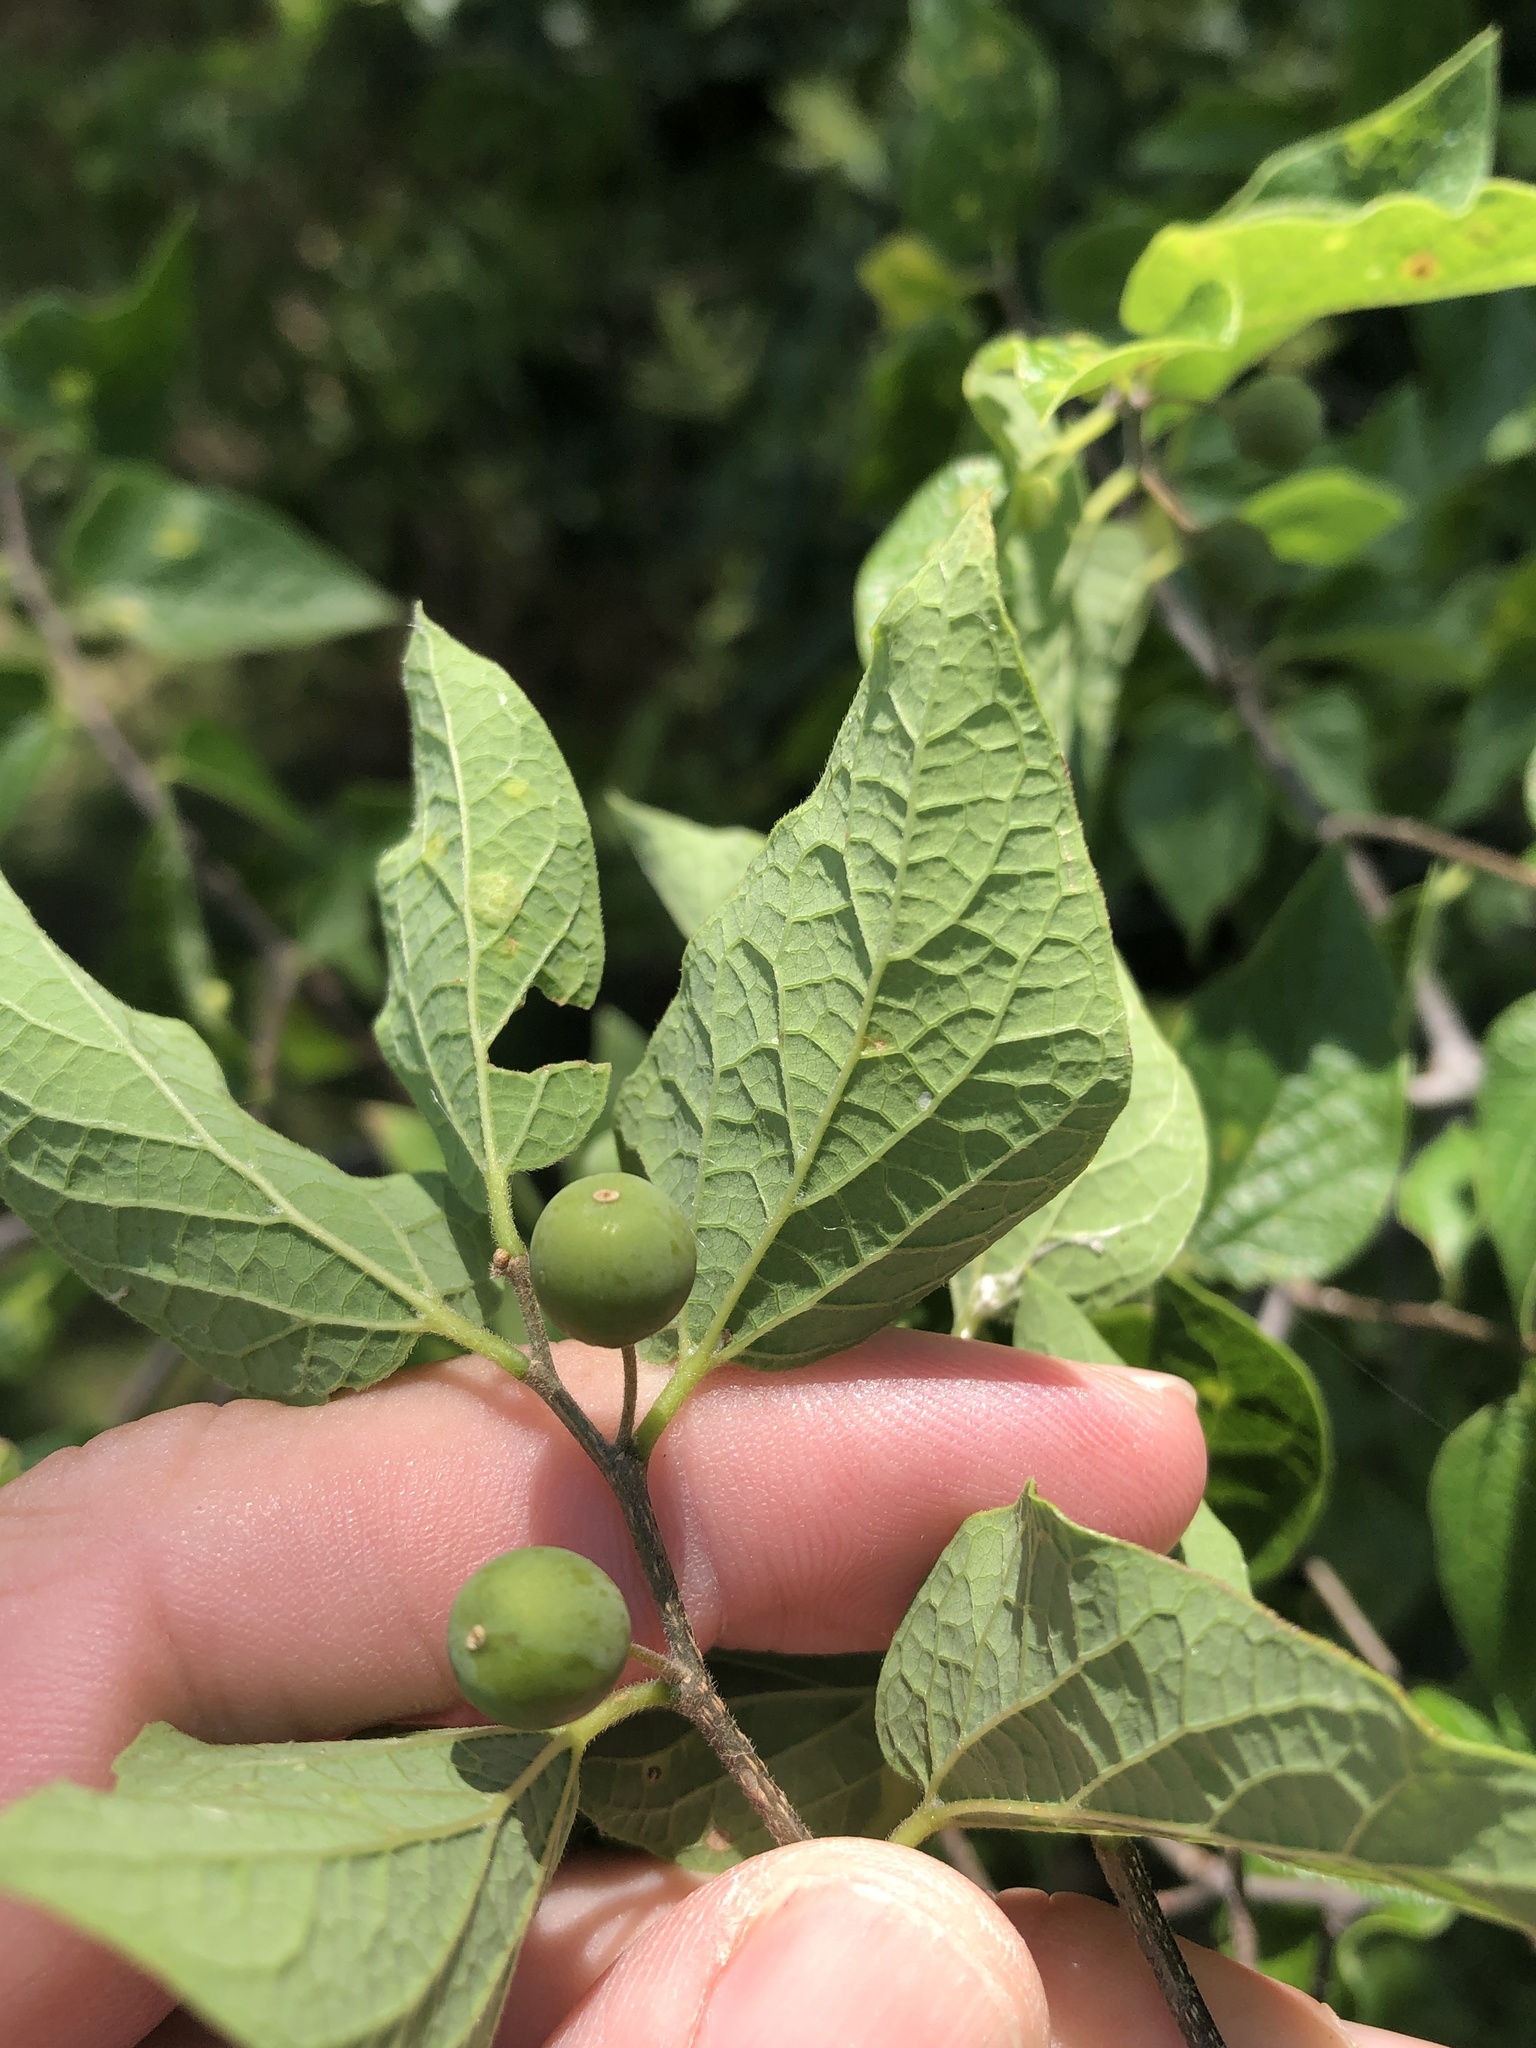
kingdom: Plantae
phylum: Tracheophyta
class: Magnoliopsida
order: Rosales
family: Cannabaceae
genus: Celtis
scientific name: Celtis reticulata
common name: Netleaf hackberry
